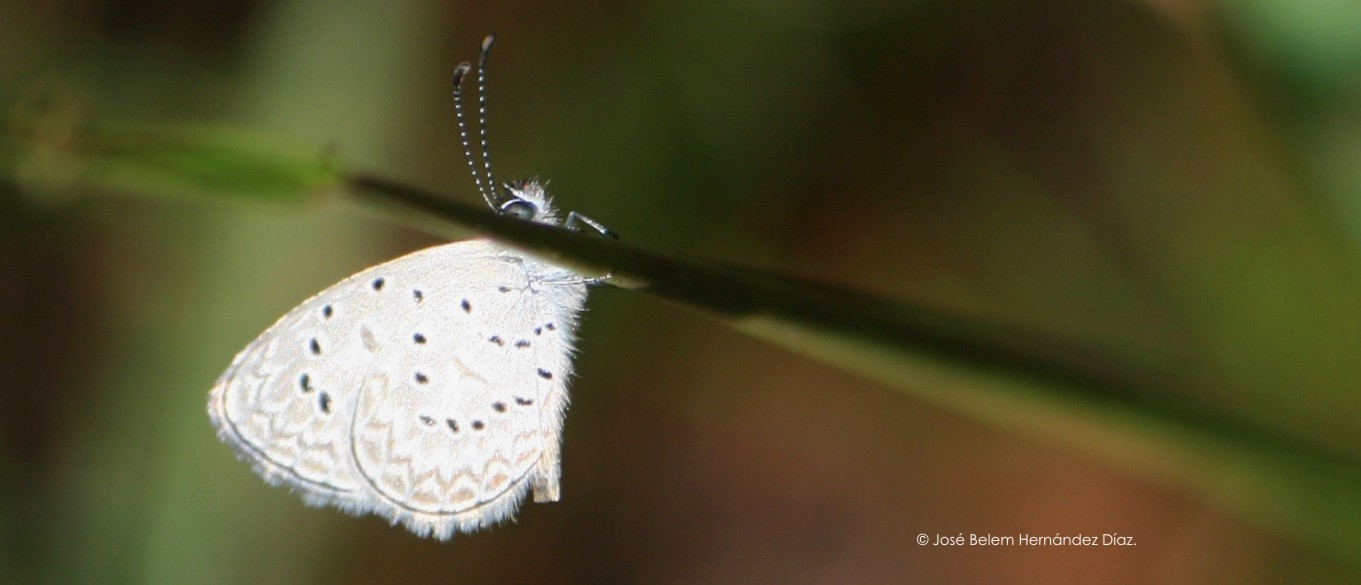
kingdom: Animalia
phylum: Arthropoda
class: Insecta
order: Lepidoptera
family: Lycaenidae
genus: Lycaena
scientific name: Lycaena cyna
